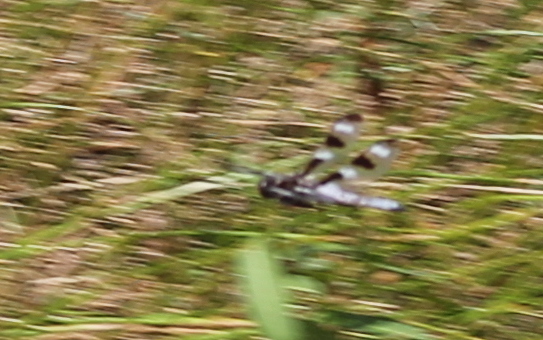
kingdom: Animalia
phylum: Arthropoda
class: Insecta
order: Odonata
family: Libellulidae
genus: Libellula
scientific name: Libellula pulchella
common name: Twelve-spotted skimmer
